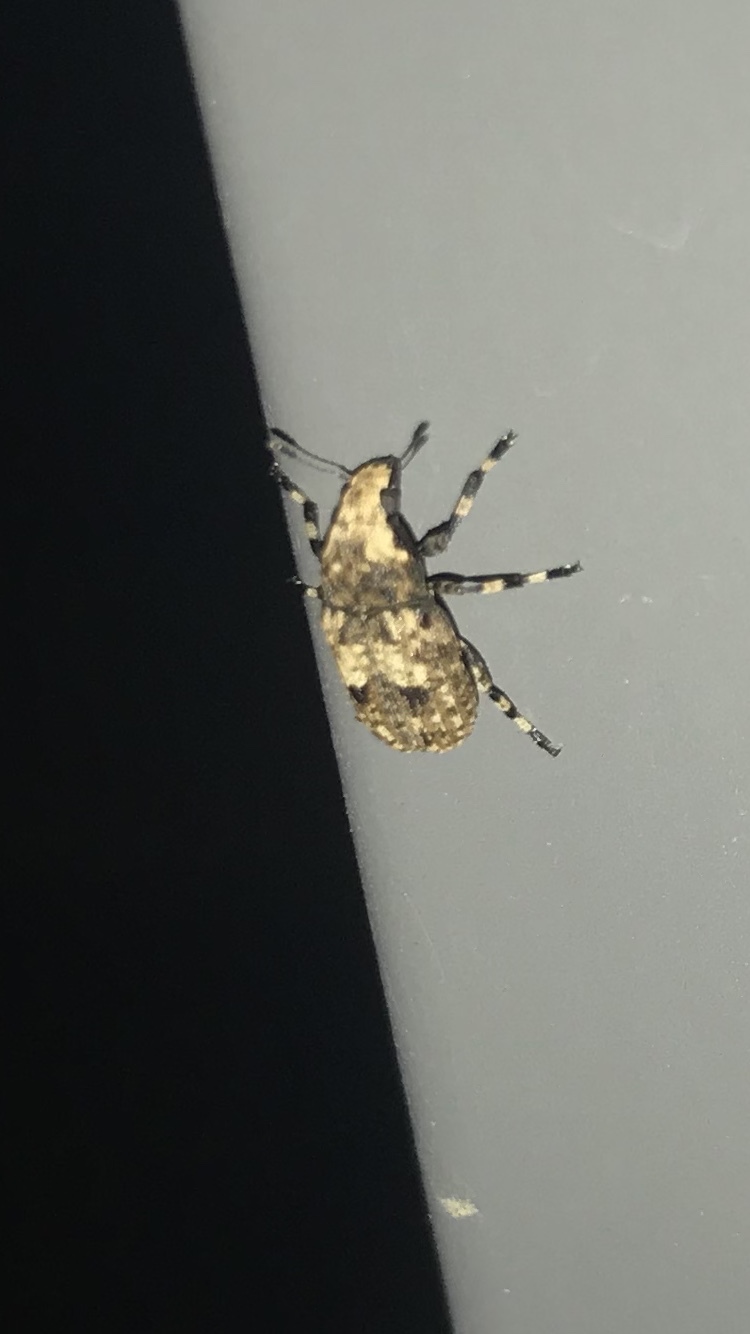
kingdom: Animalia
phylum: Arthropoda
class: Insecta
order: Coleoptera
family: Anthribidae
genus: Euparius
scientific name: Euparius marmoreus
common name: Marbled fungus weevil
